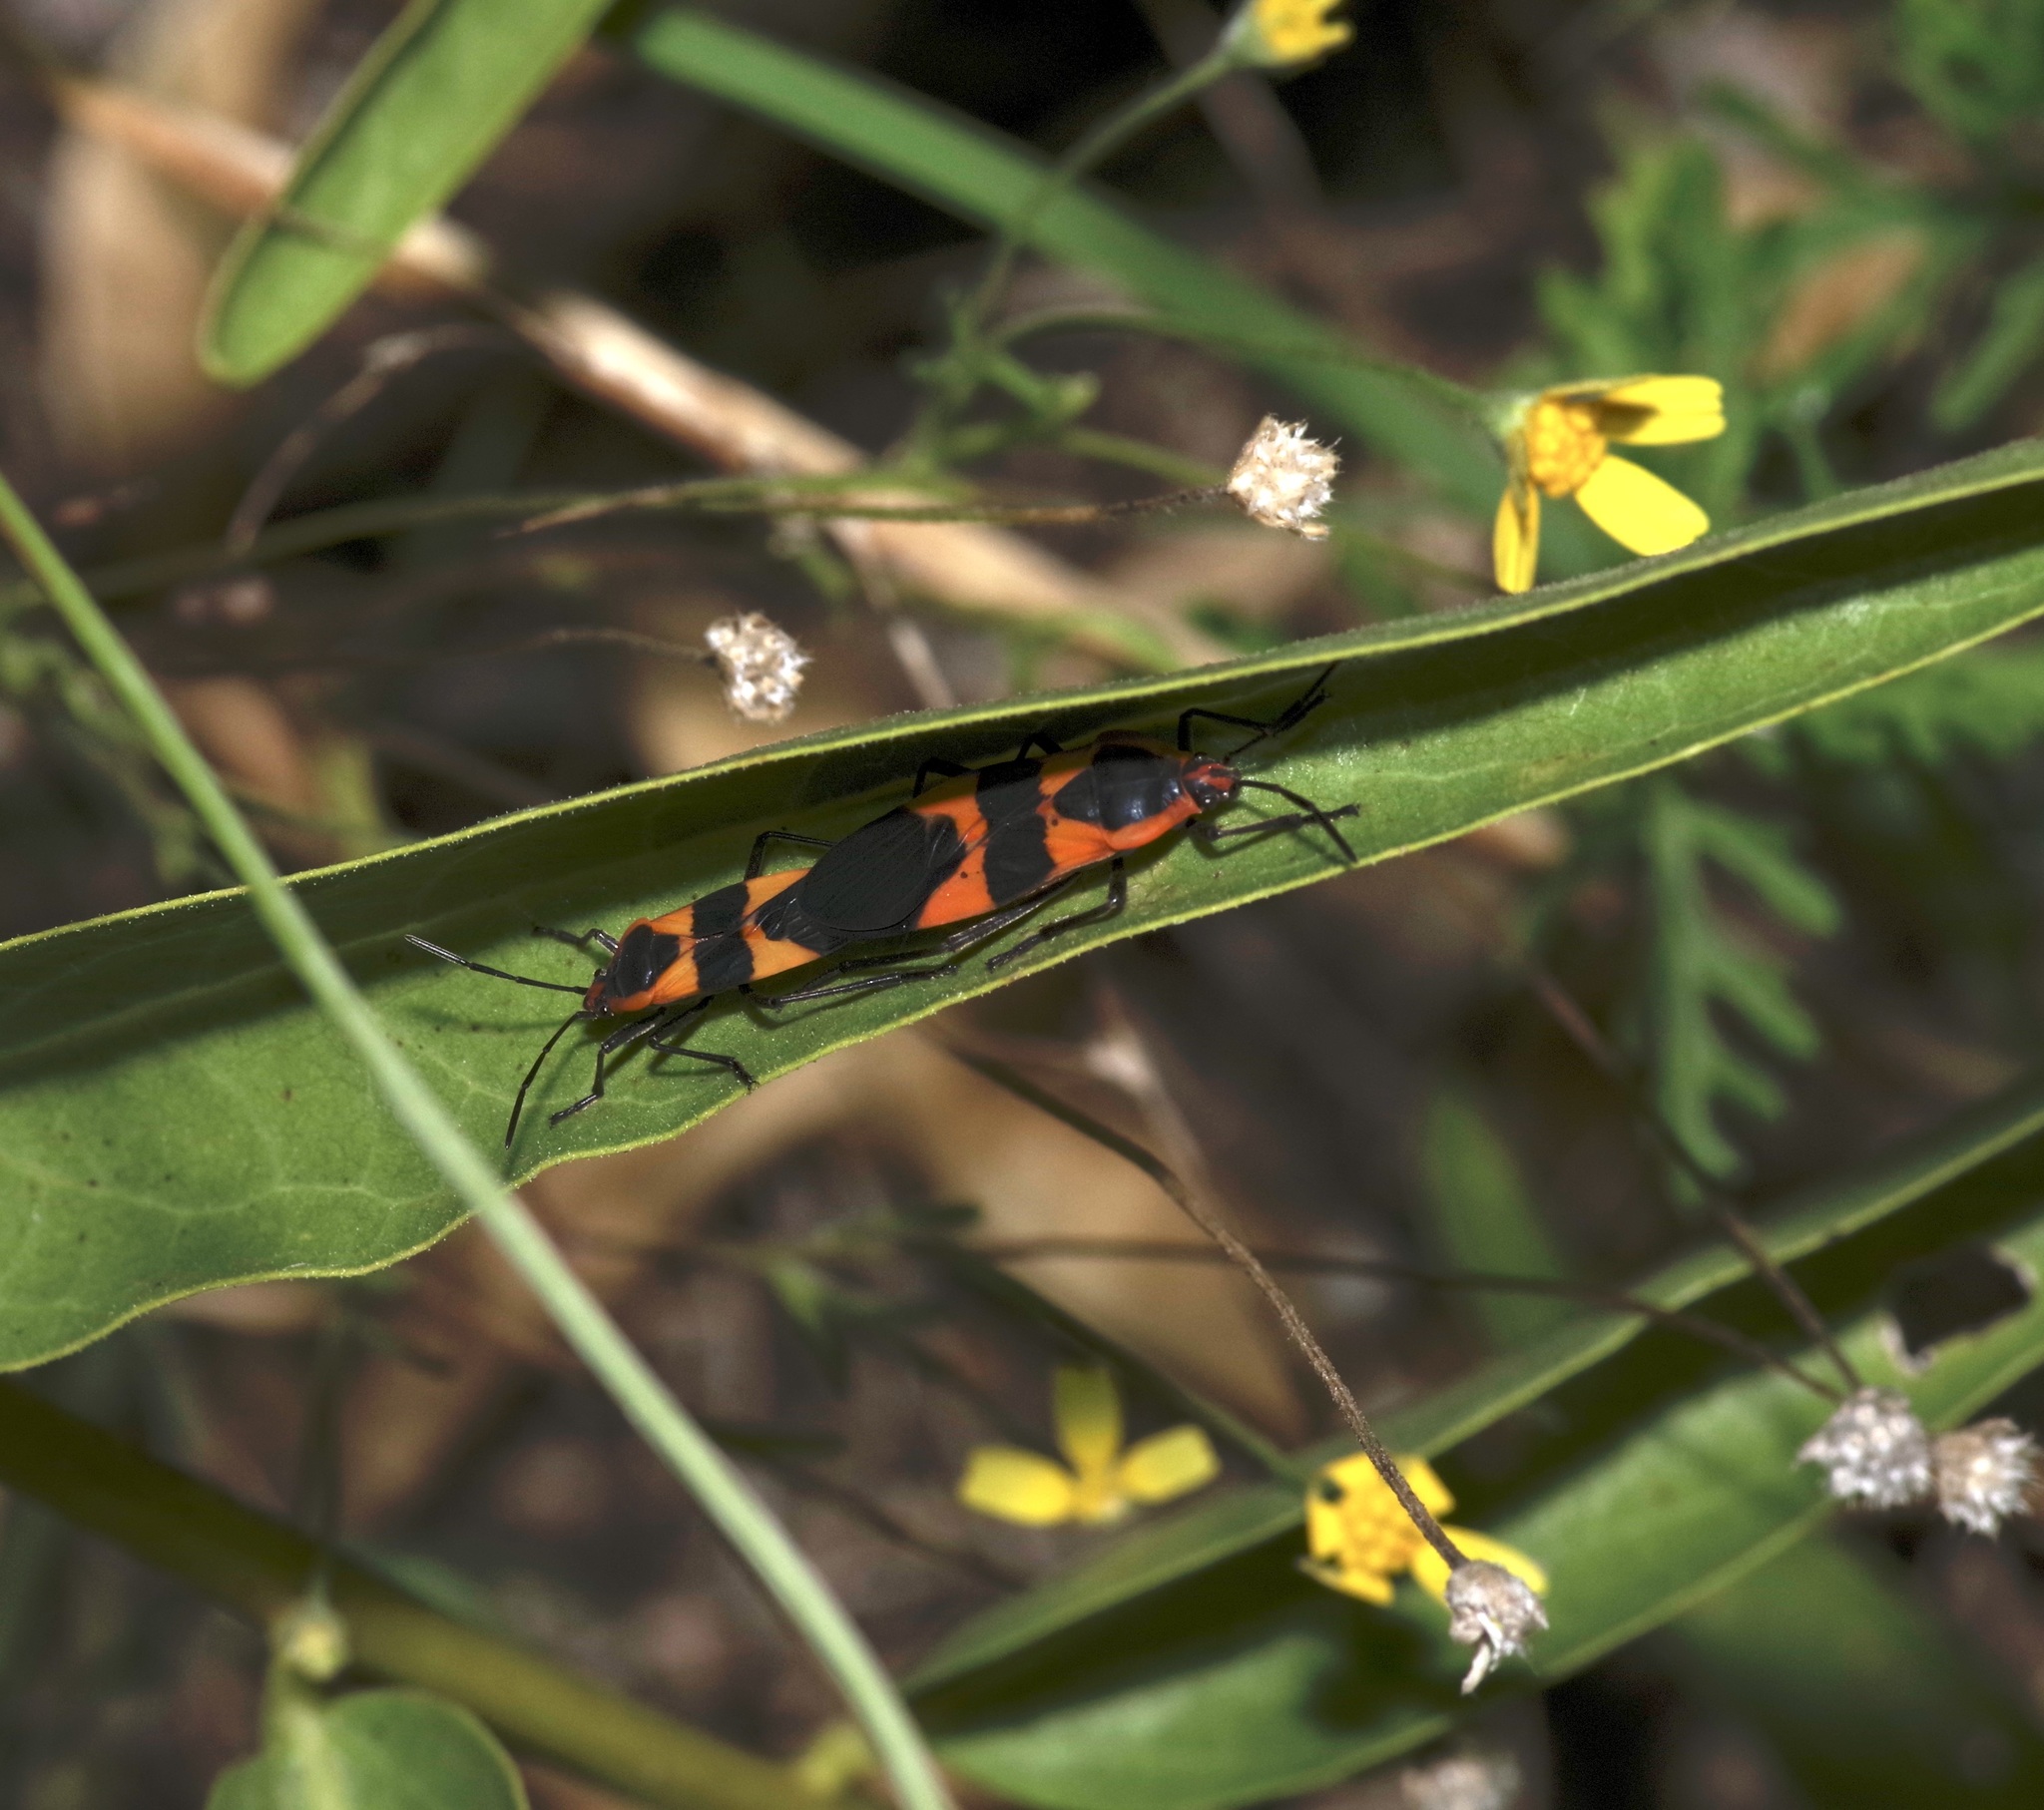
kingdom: Animalia
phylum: Arthropoda
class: Insecta
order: Hemiptera
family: Lygaeidae
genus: Oncopeltus
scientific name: Oncopeltus fasciatus
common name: Large milkweed bug
